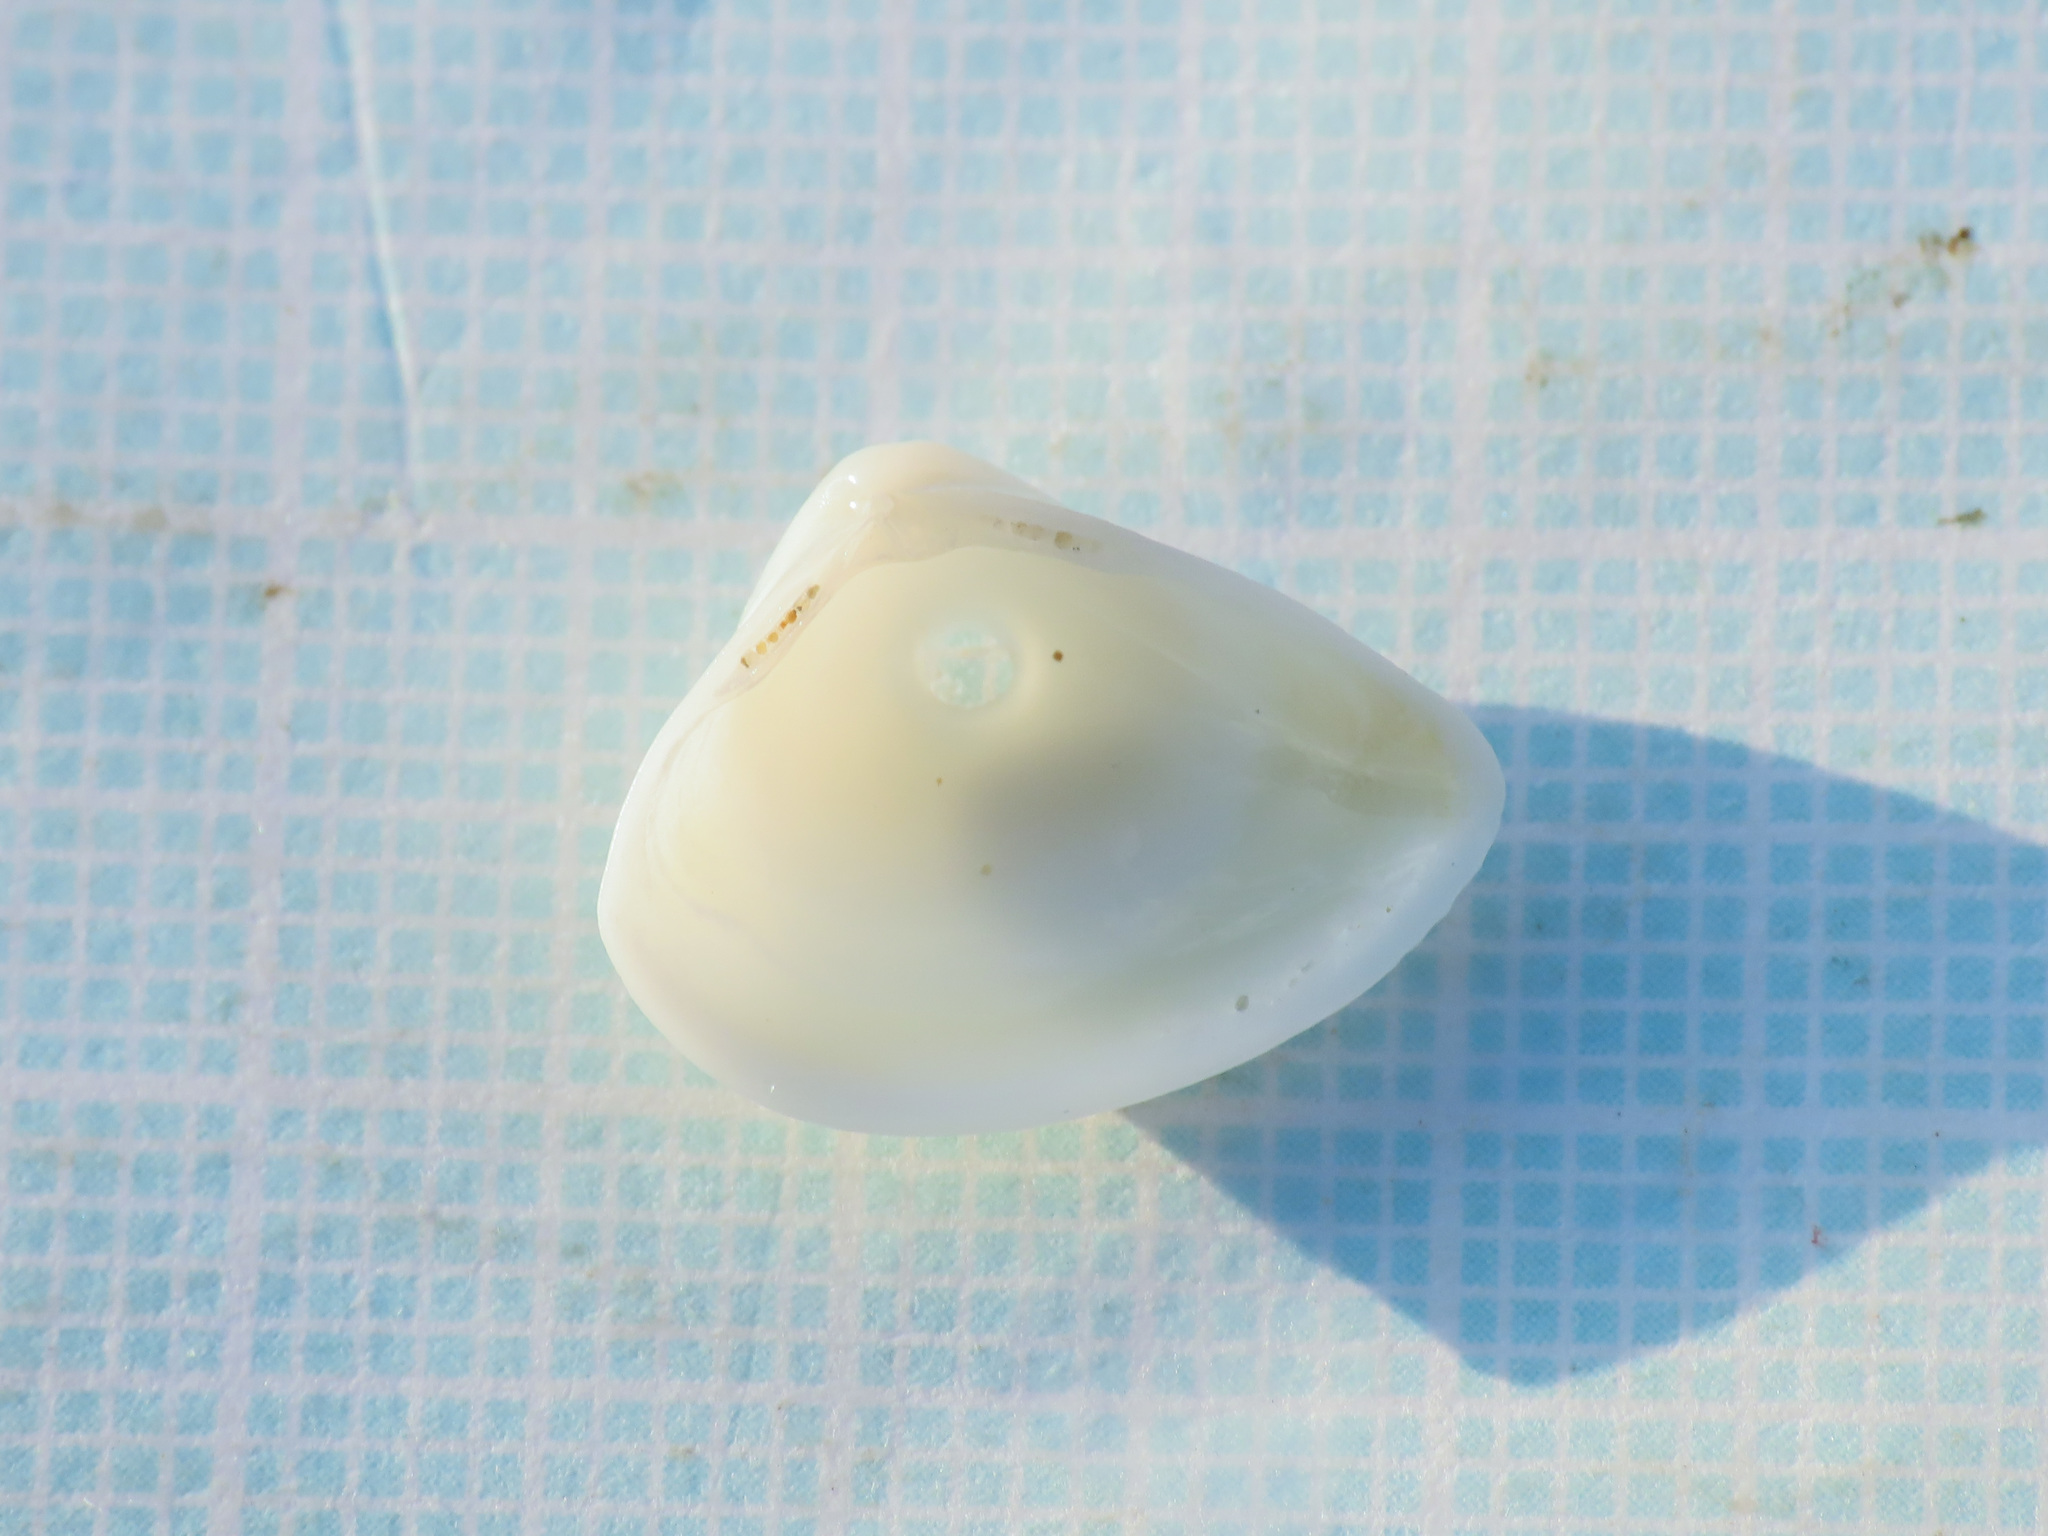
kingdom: Animalia
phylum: Mollusca
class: Bivalvia
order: Venerida
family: Mactridae
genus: Spisula
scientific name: Spisula subtruncata
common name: Cut trough shell
